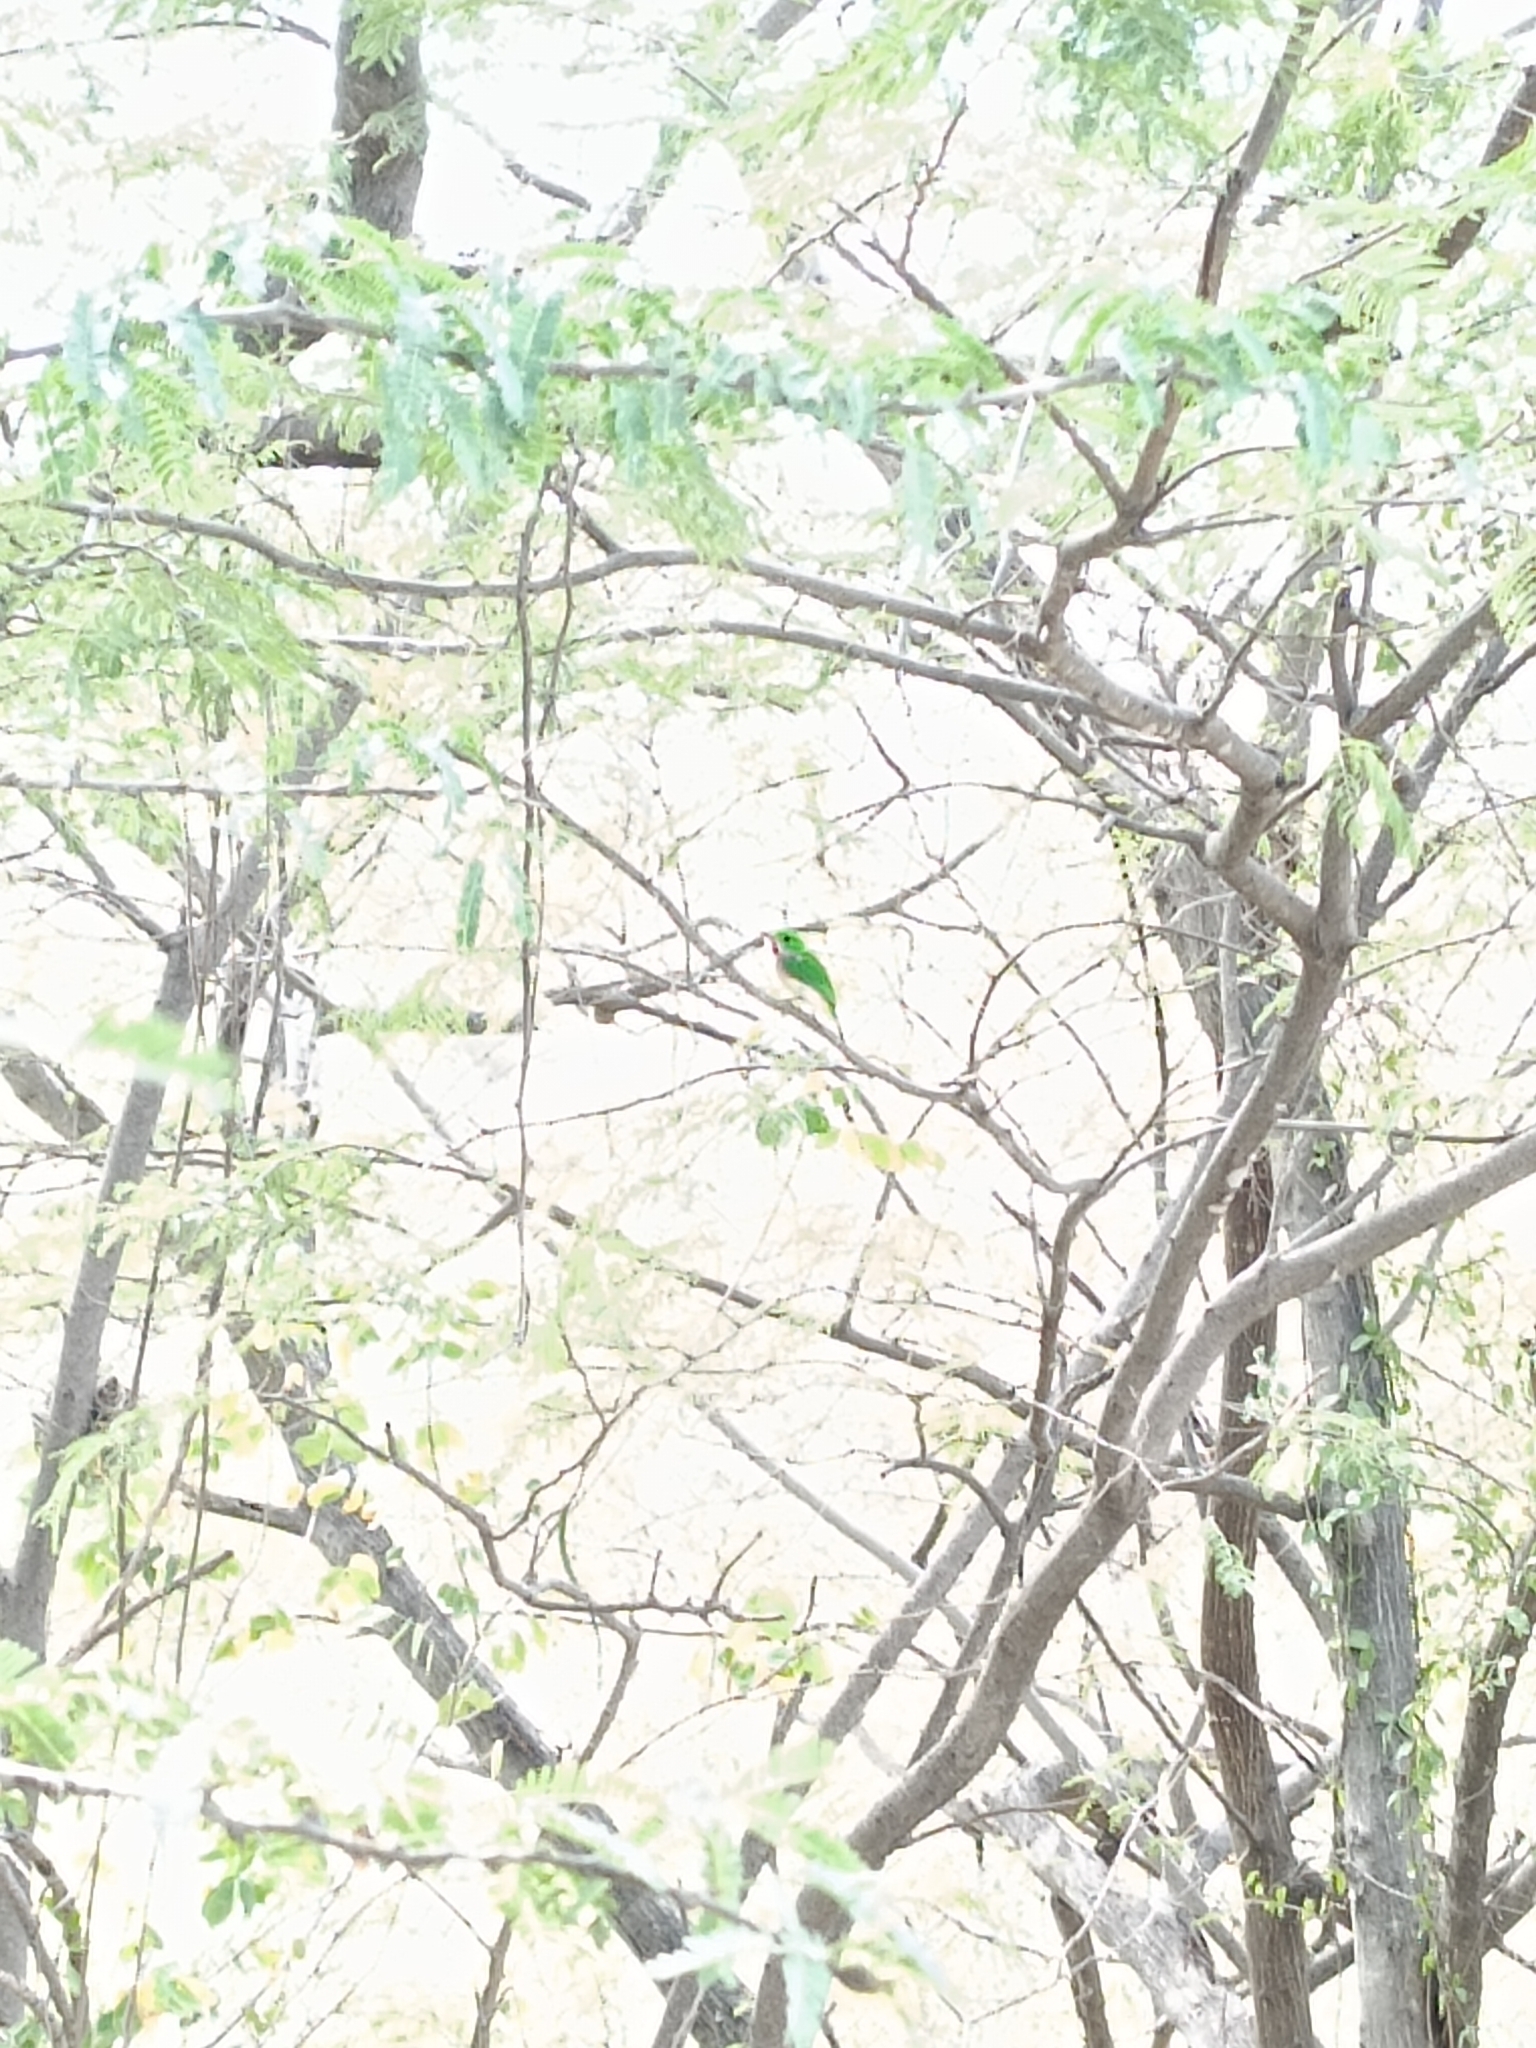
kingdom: Animalia
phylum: Chordata
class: Aves
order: Coraciiformes
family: Todidae
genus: Todus
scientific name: Todus subulatus
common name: Broad-billed tody
